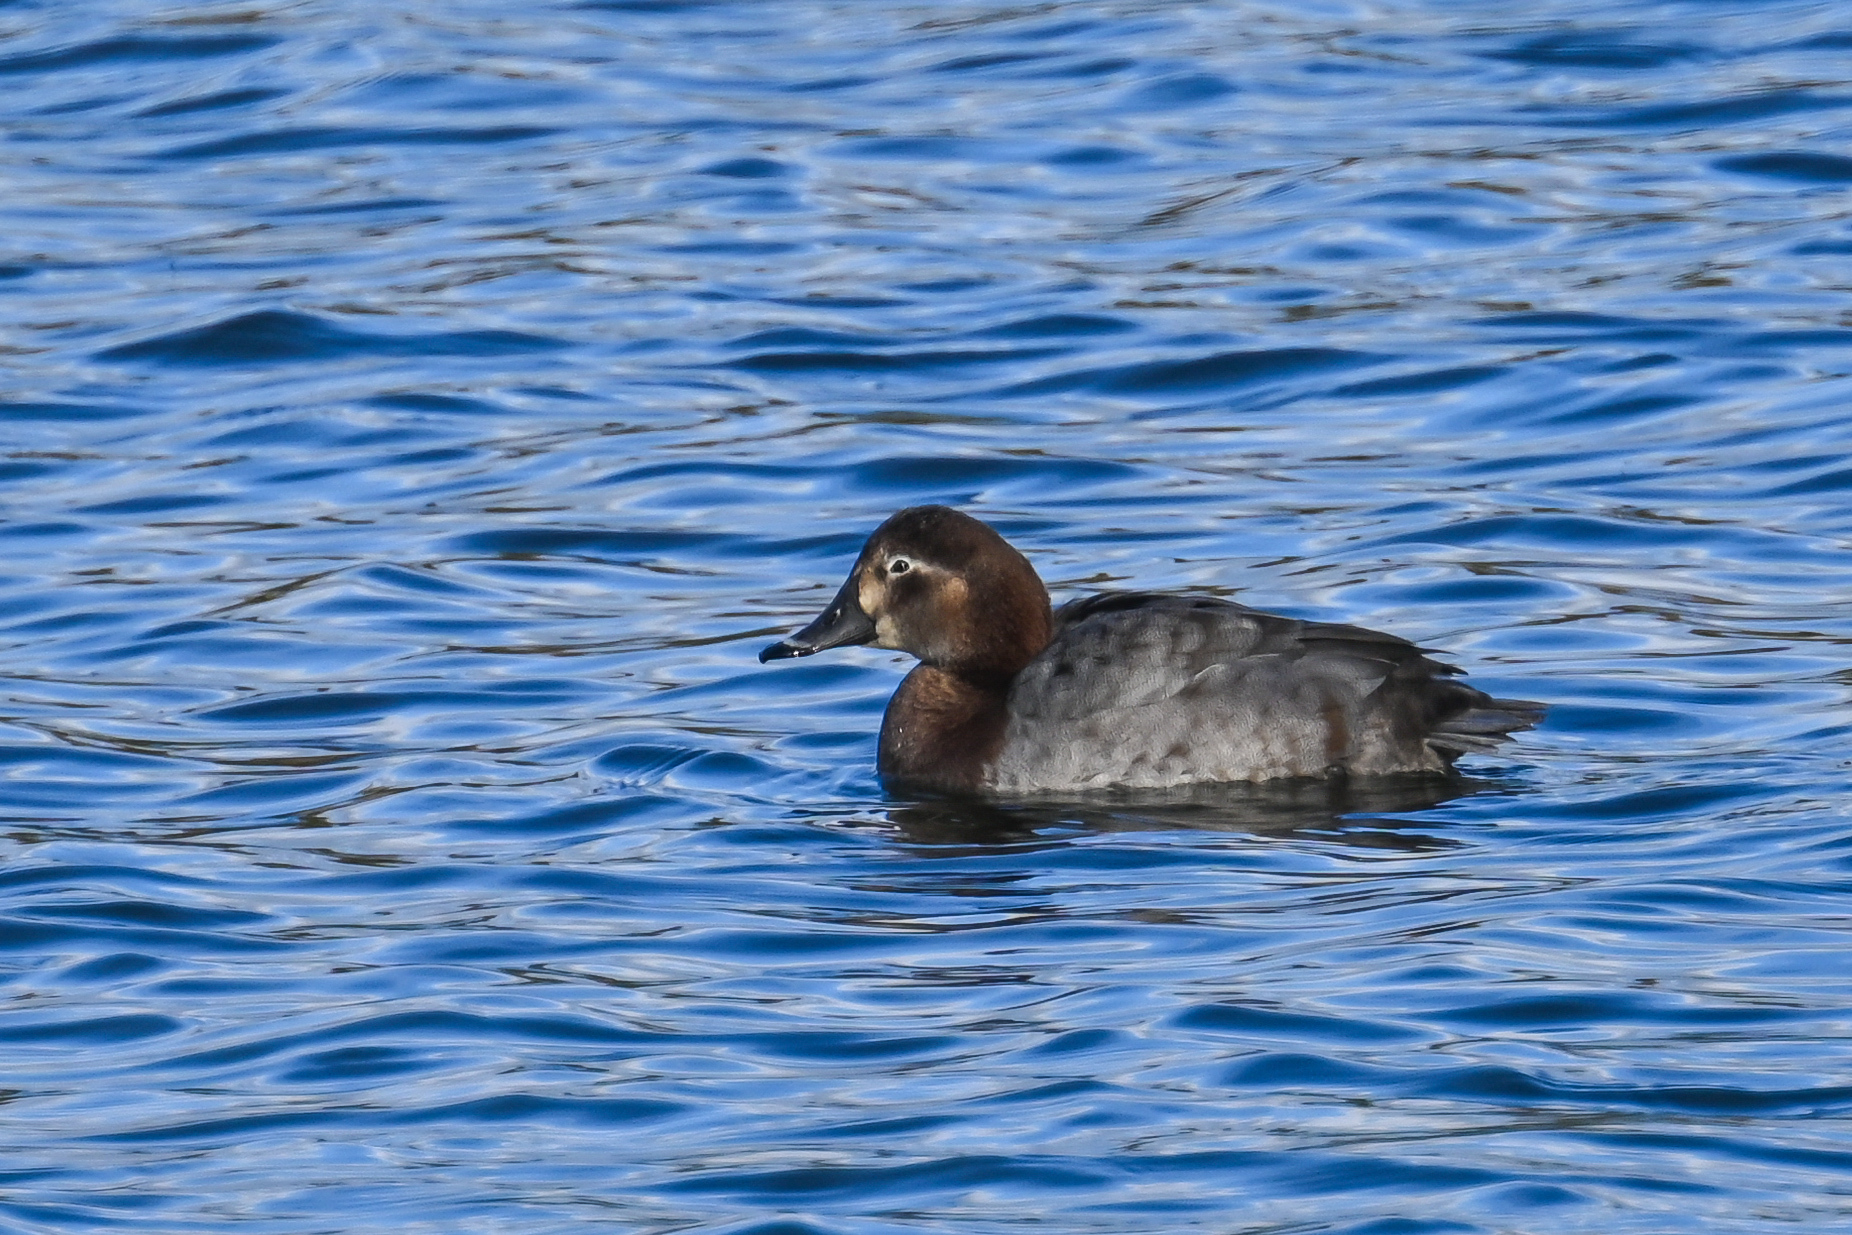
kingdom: Animalia
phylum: Chordata
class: Aves
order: Anseriformes
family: Anatidae
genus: Aythya
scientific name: Aythya ferina
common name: Common pochard
